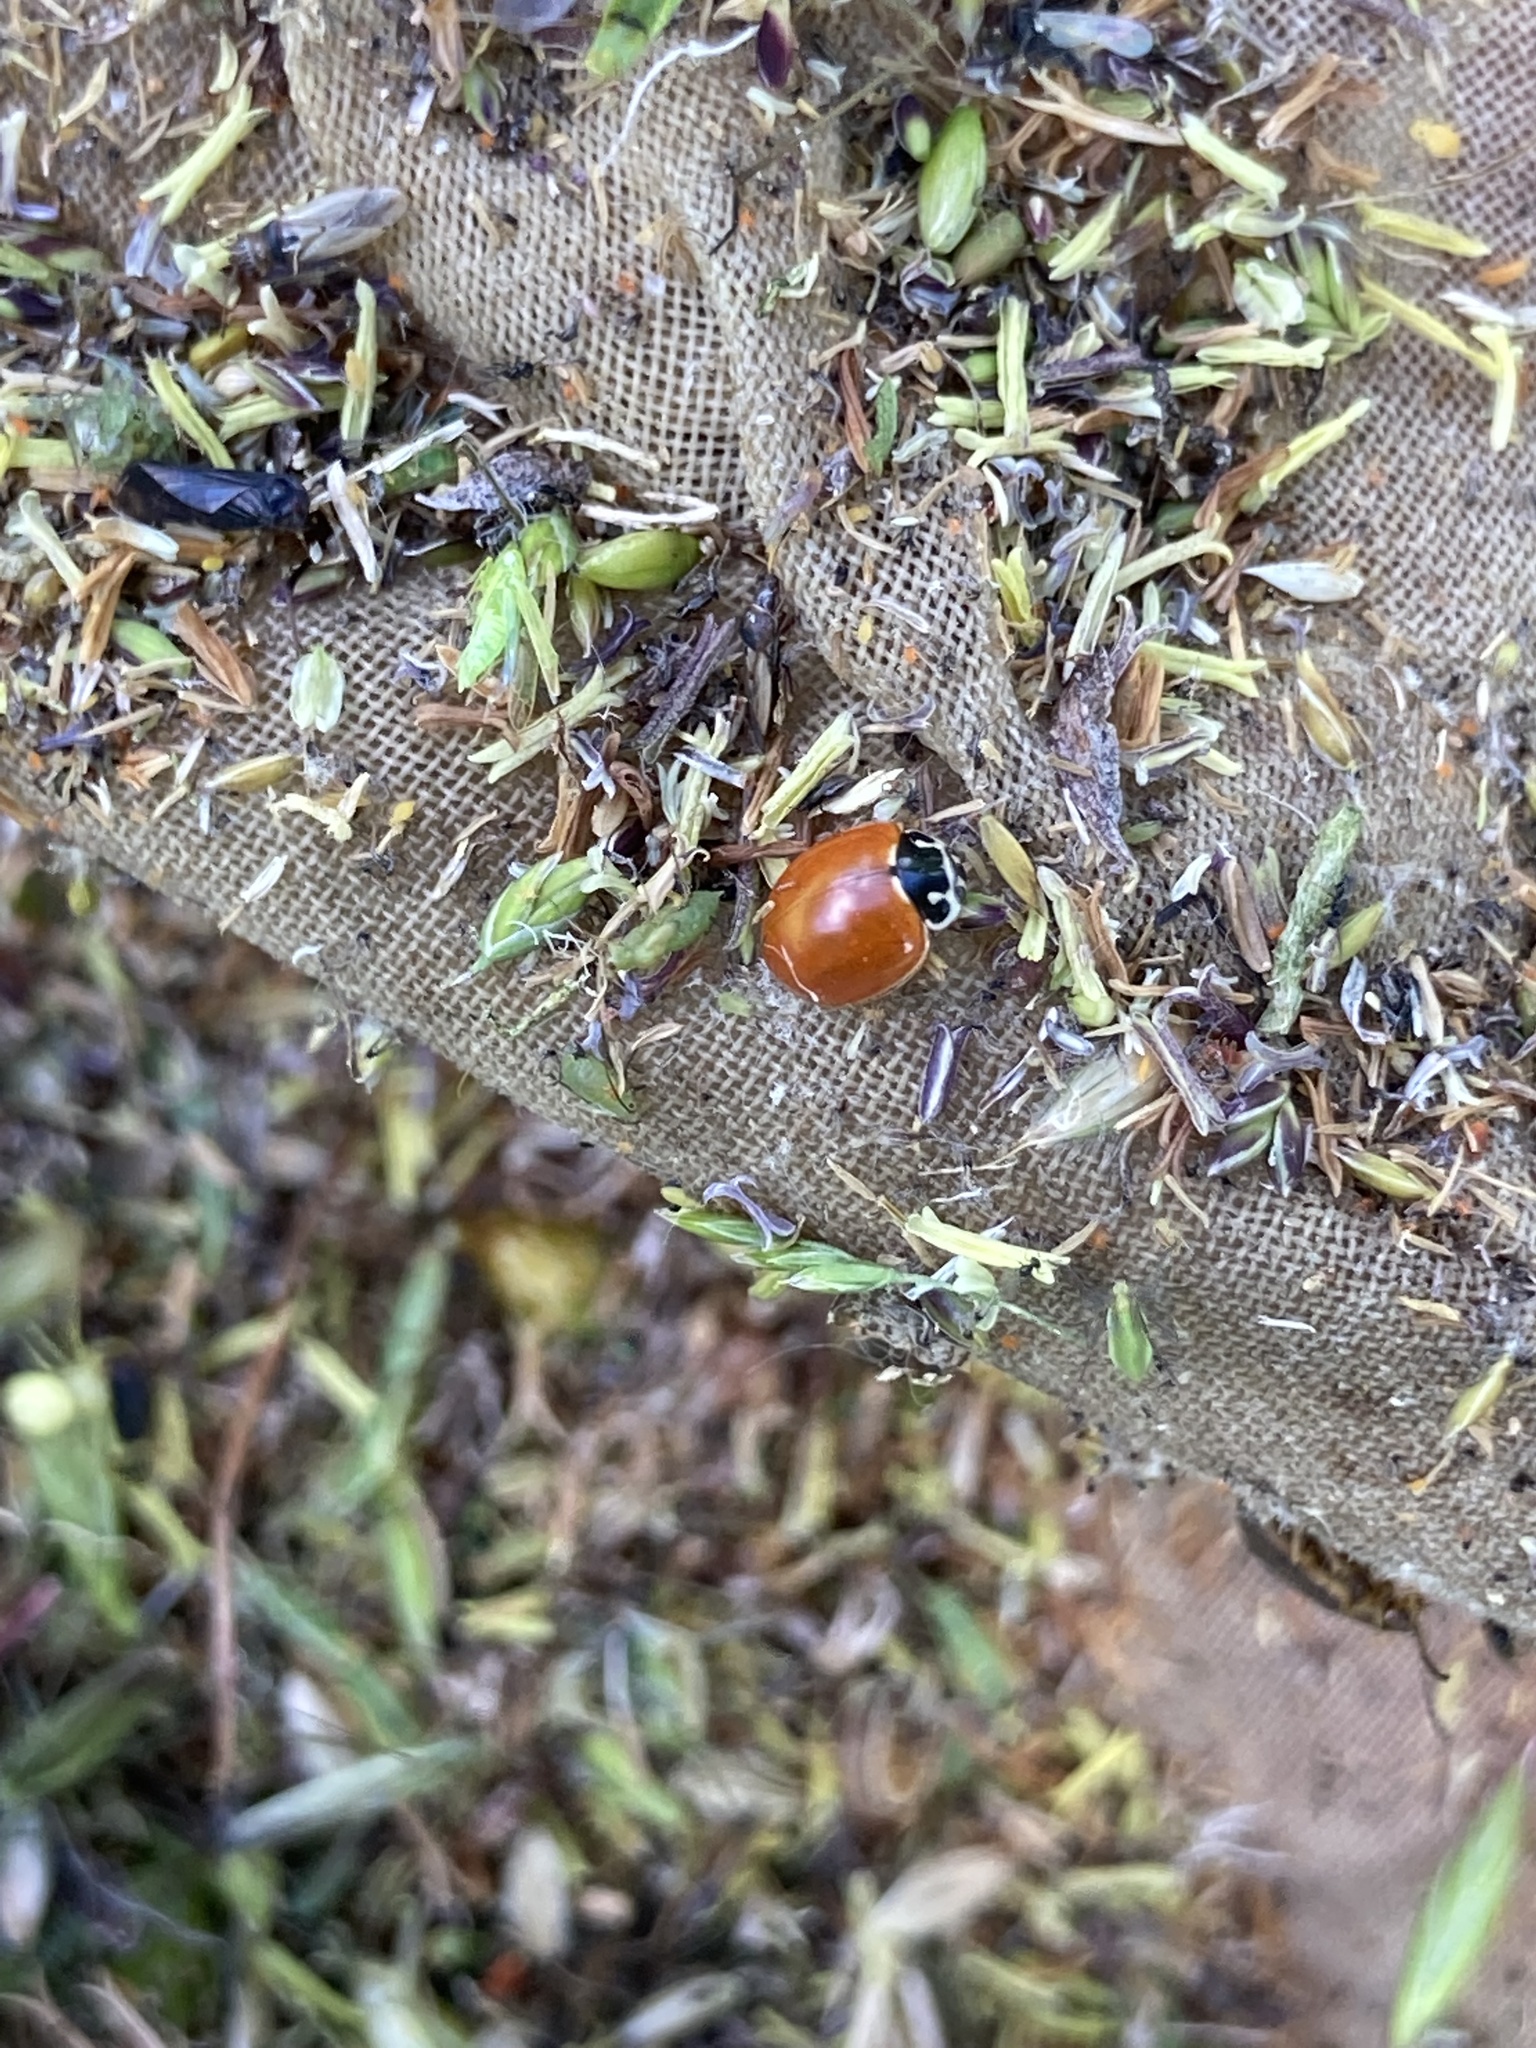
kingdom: Animalia
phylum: Arthropoda
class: Insecta
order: Coleoptera
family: Coccinellidae
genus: Cycloneda
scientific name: Cycloneda munda
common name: Polished lady beetle
